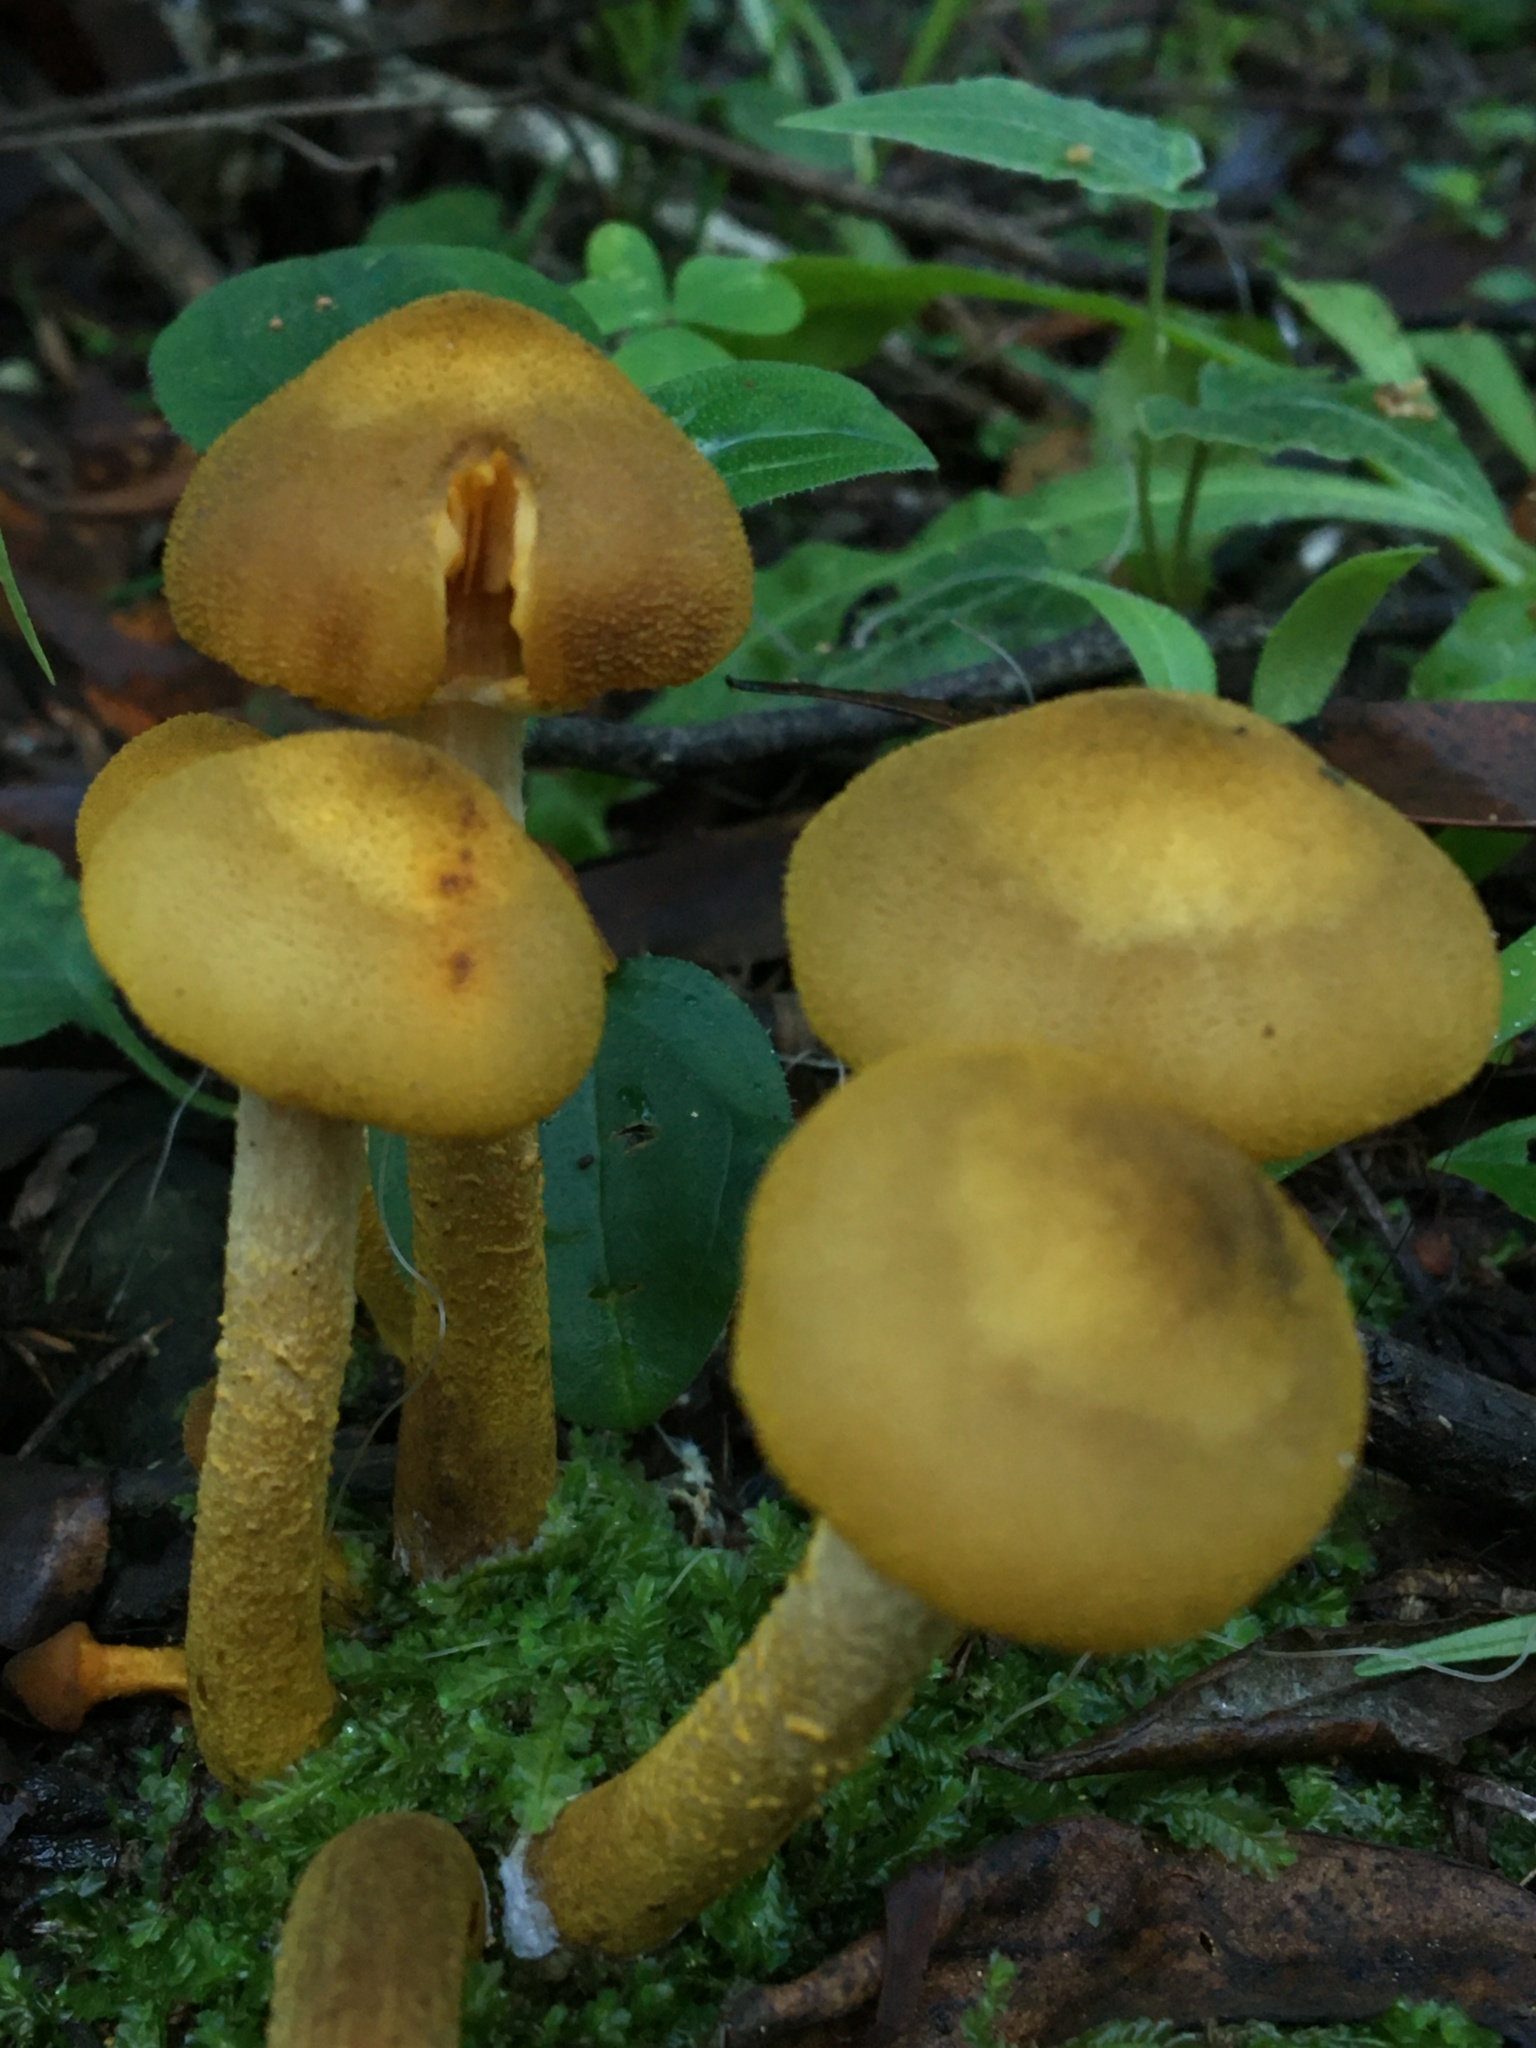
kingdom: Fungi
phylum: Basidiomycota
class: Agaricomycetes
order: Agaricales
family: Physalacriaceae
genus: Armillaria
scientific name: Armillaria luteobubalina
